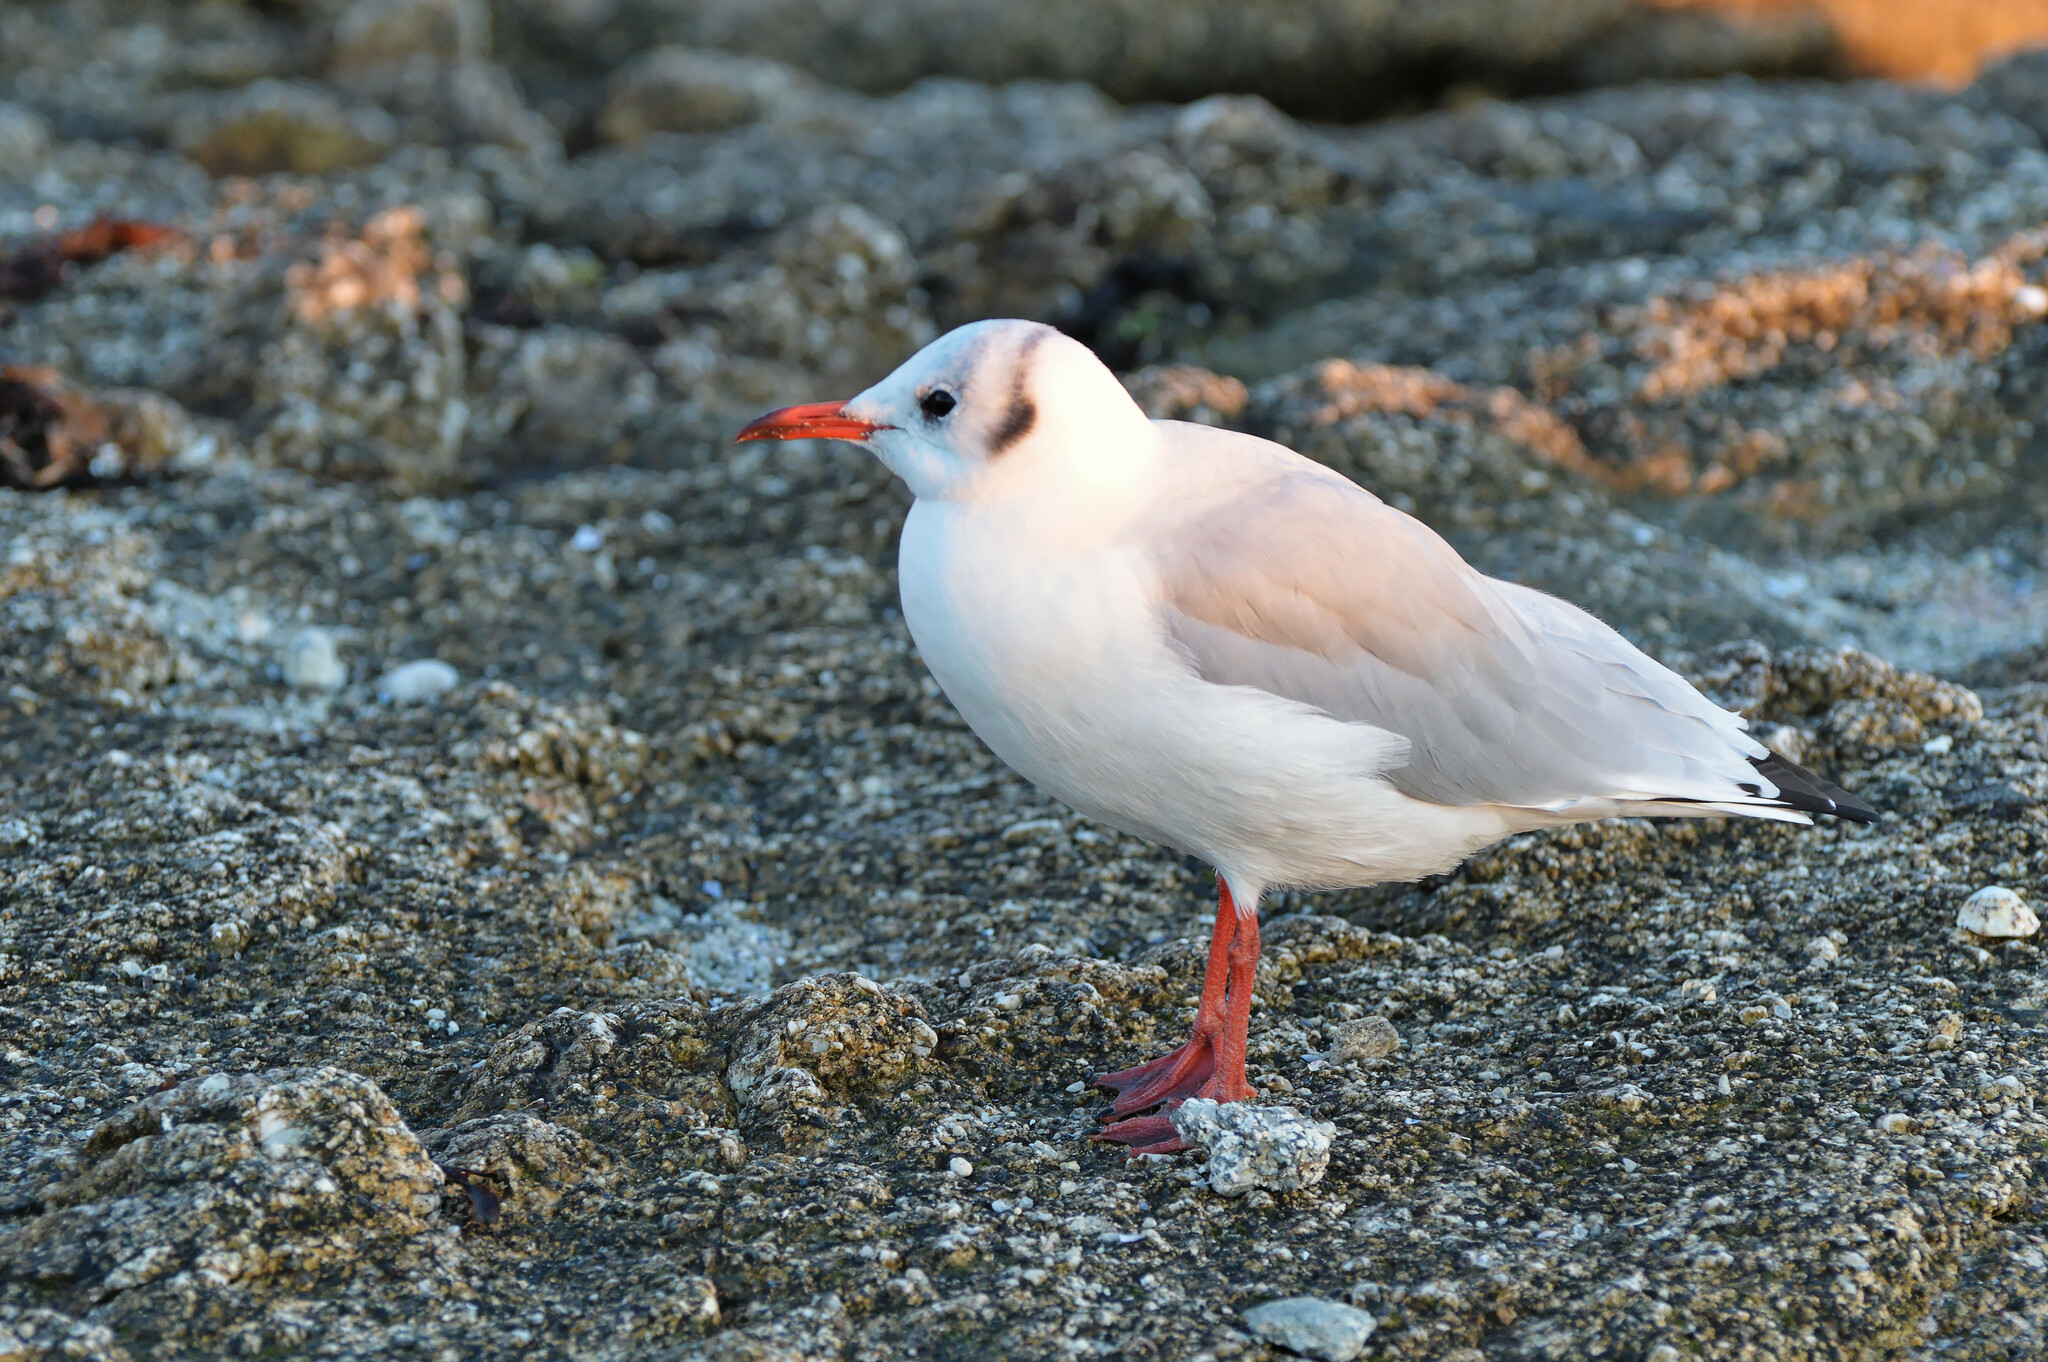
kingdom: Animalia
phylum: Chordata
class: Aves
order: Charadriiformes
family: Laridae
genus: Chroicocephalus
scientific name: Chroicocephalus ridibundus
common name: Black-headed gull
